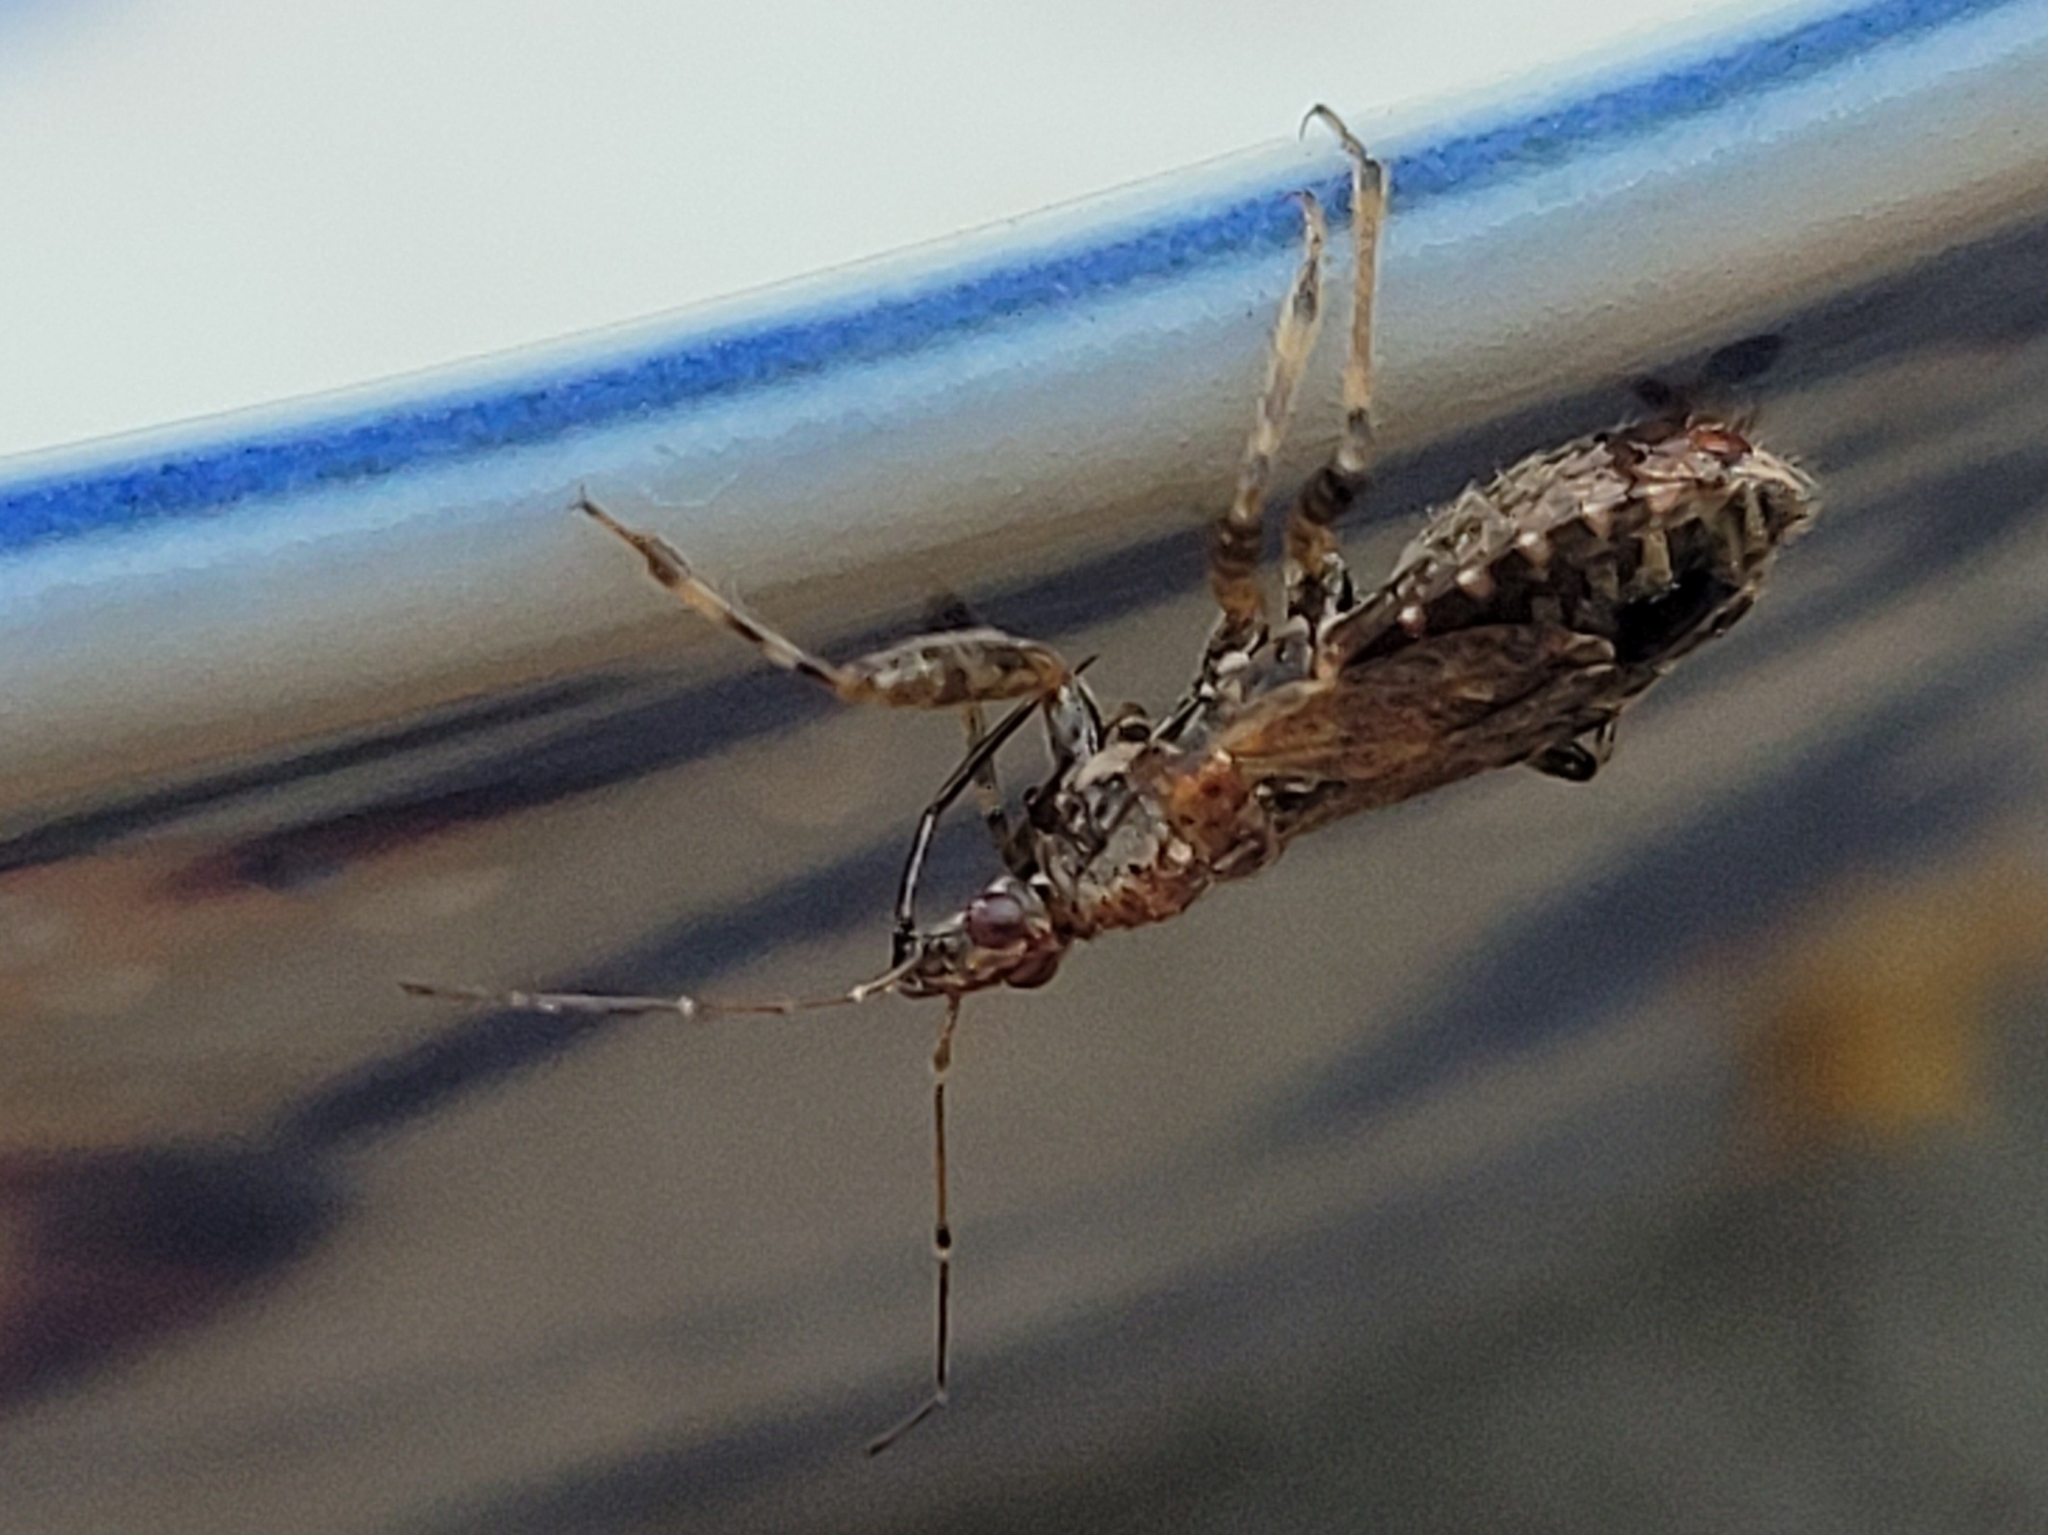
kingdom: Animalia
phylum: Arthropoda
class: Insecta
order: Hemiptera
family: Nabidae
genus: Himacerus
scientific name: Himacerus mirmicoides
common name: Ant damsel bug
